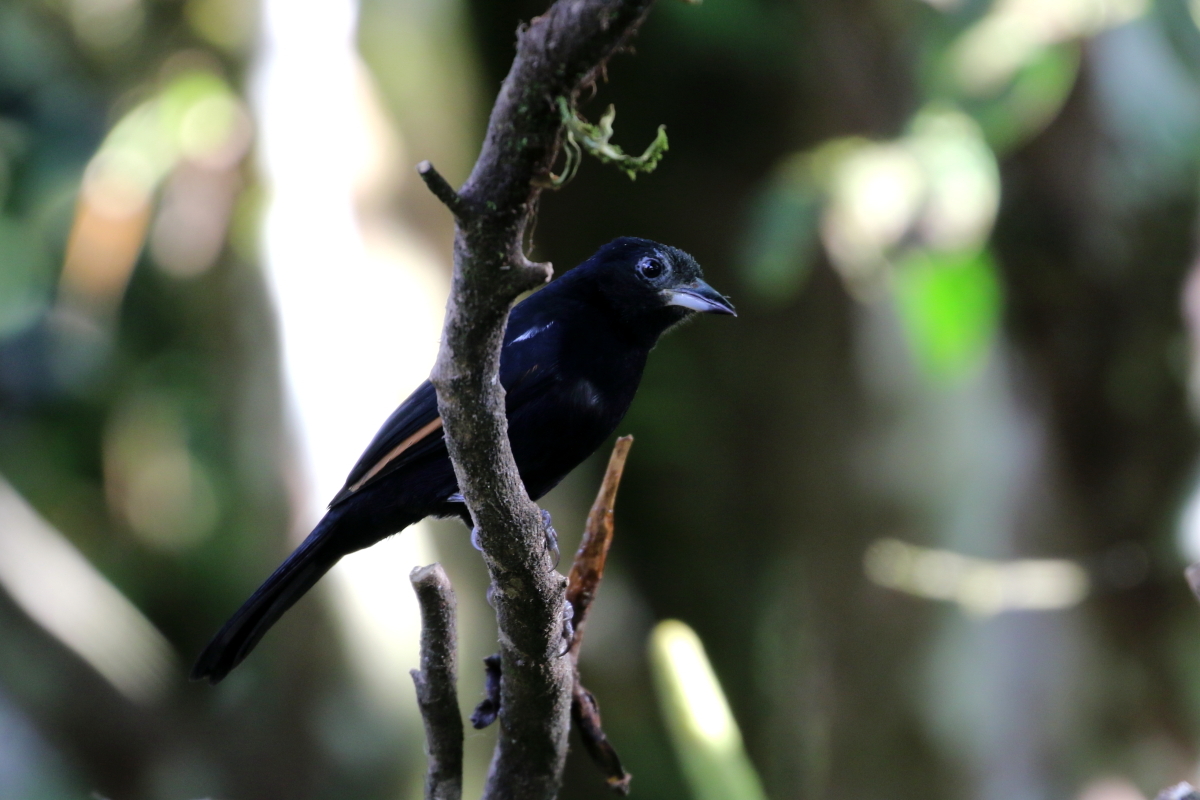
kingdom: Animalia
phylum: Chordata
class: Aves
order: Passeriformes
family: Thraupidae
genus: Tachyphonus
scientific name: Tachyphonus rufus
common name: White-lined tanager
